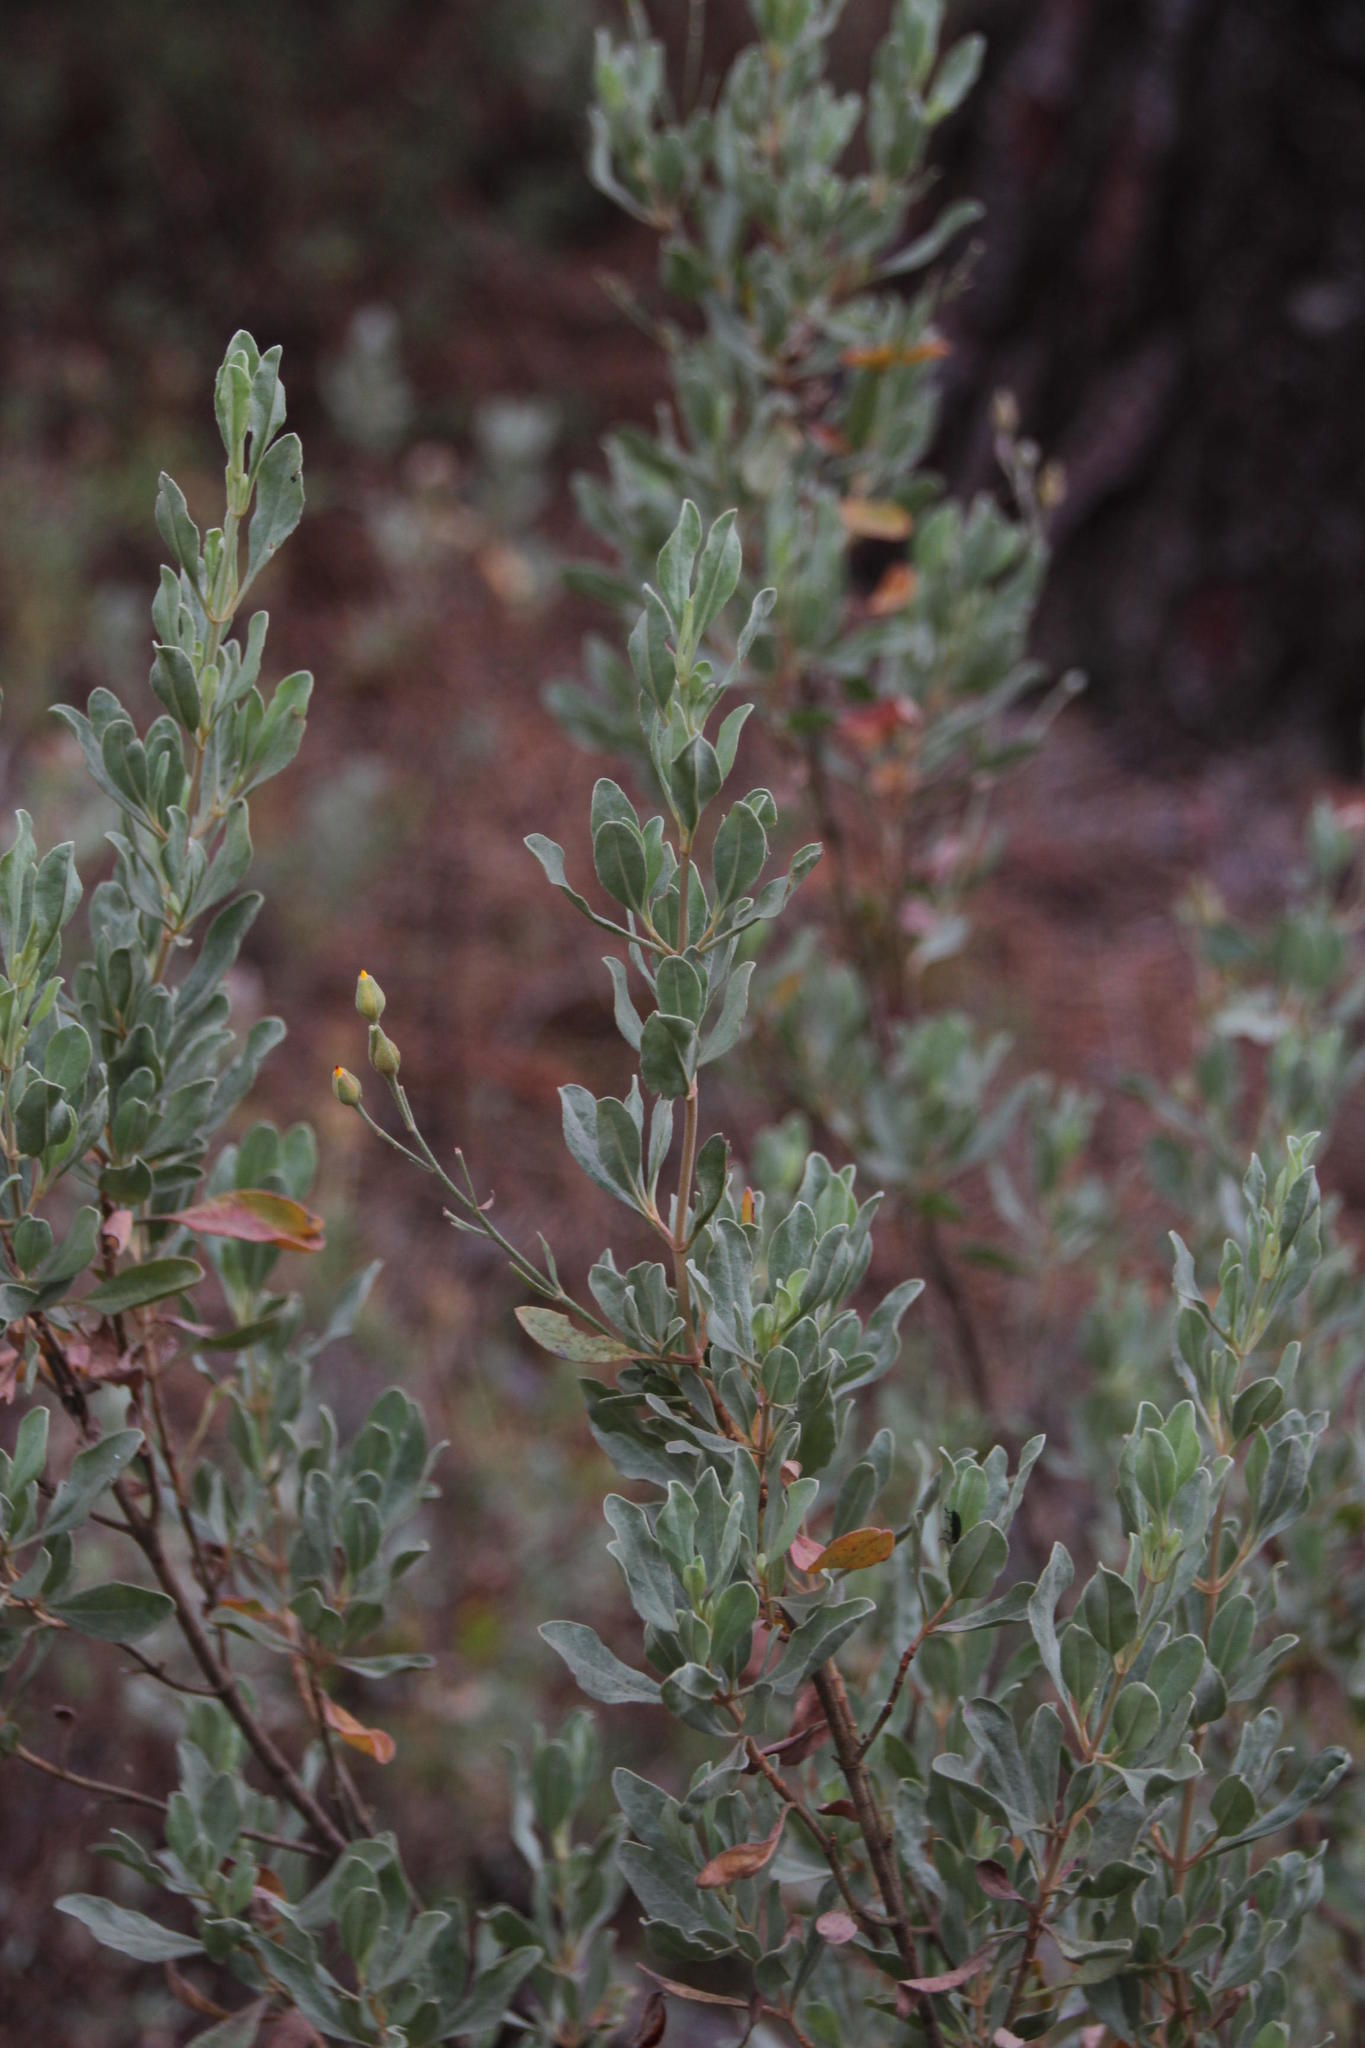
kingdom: Plantae
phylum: Tracheophyta
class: Magnoliopsida
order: Malvales
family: Cistaceae
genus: Halimium
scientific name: Halimium halimifolium
